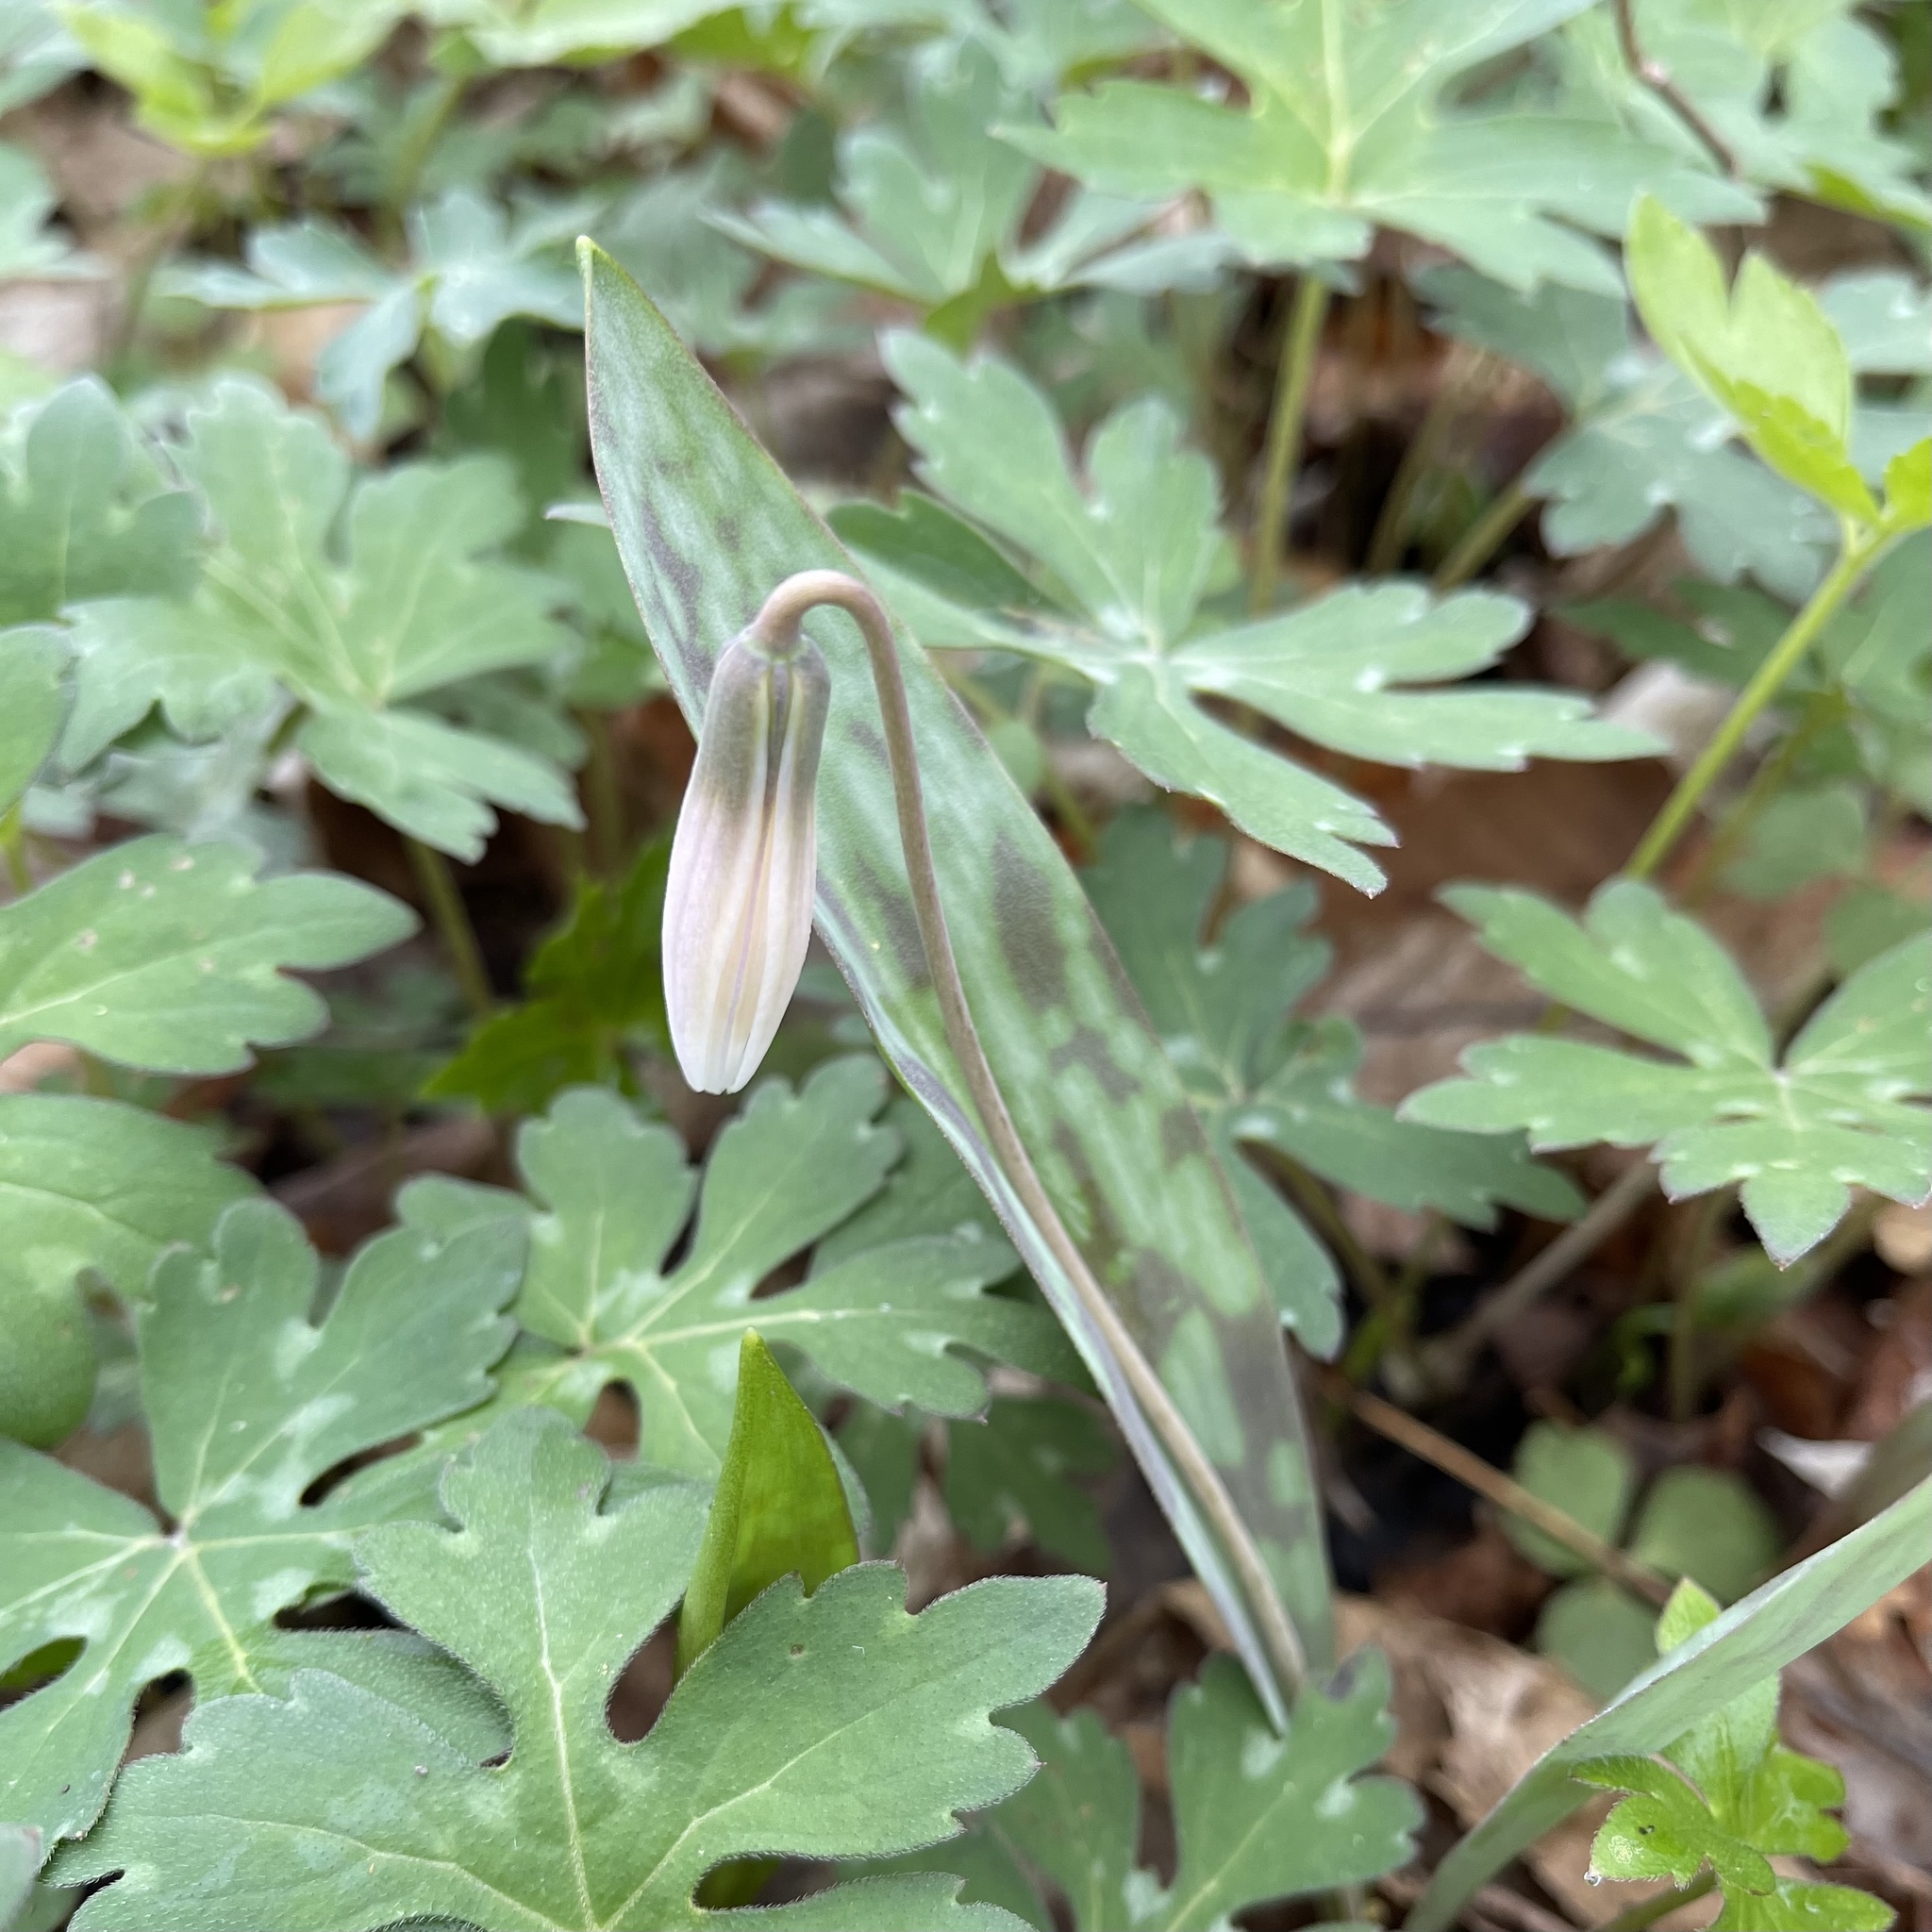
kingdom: Plantae
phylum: Tracheophyta
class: Liliopsida
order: Liliales
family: Liliaceae
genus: Erythronium
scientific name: Erythronium albidum
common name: White trout-lily
